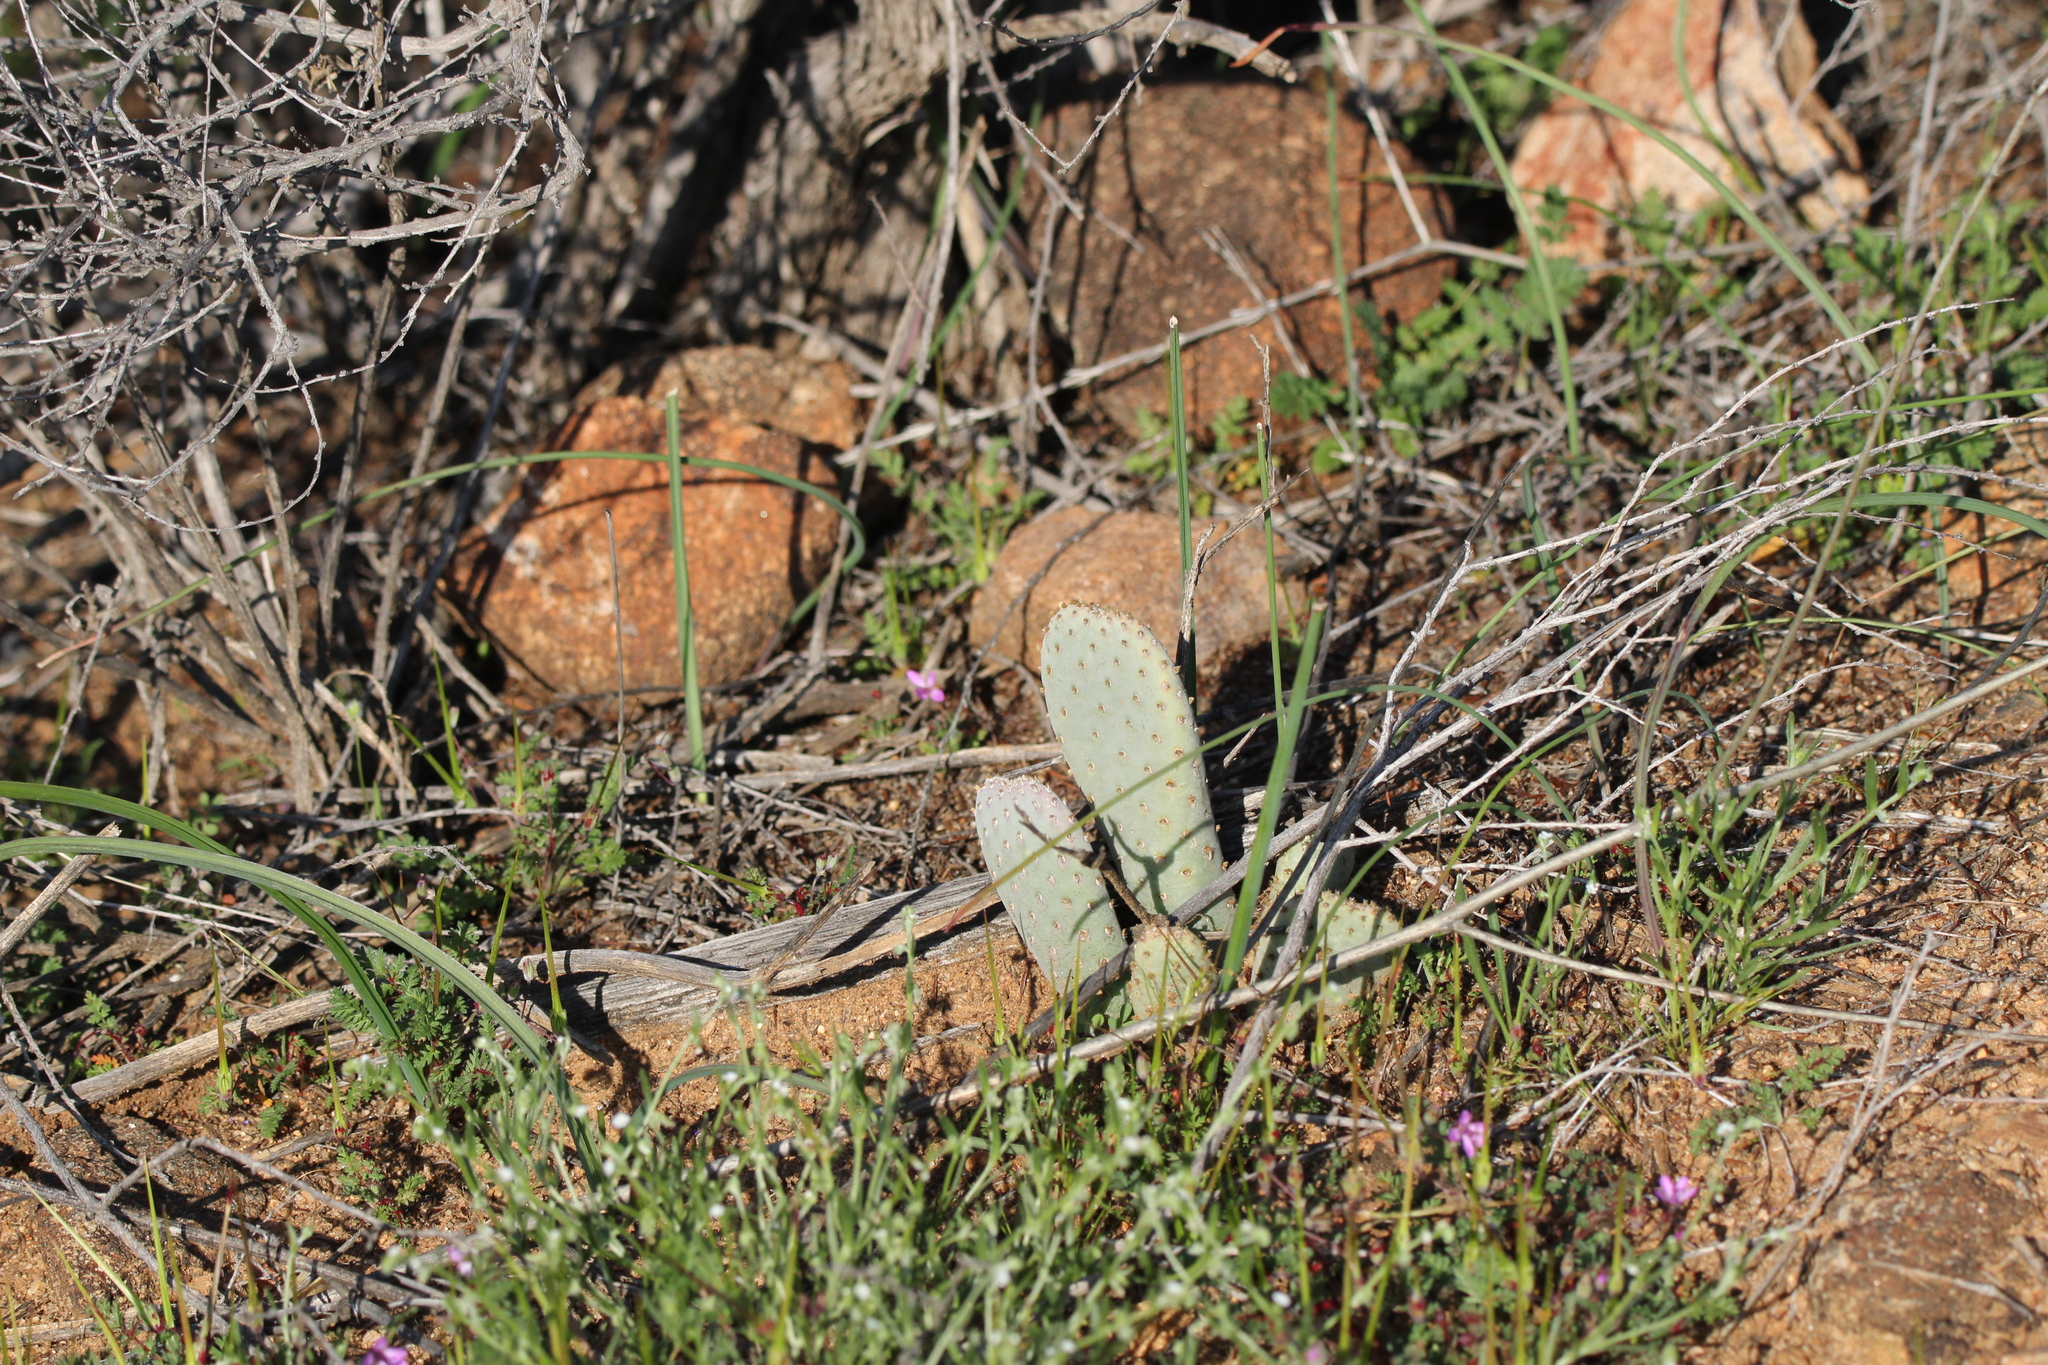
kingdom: Plantae
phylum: Tracheophyta
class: Magnoliopsida
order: Caryophyllales
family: Cactaceae
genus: Opuntia
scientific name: Opuntia basilaris
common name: Beavertail prickly-pear
